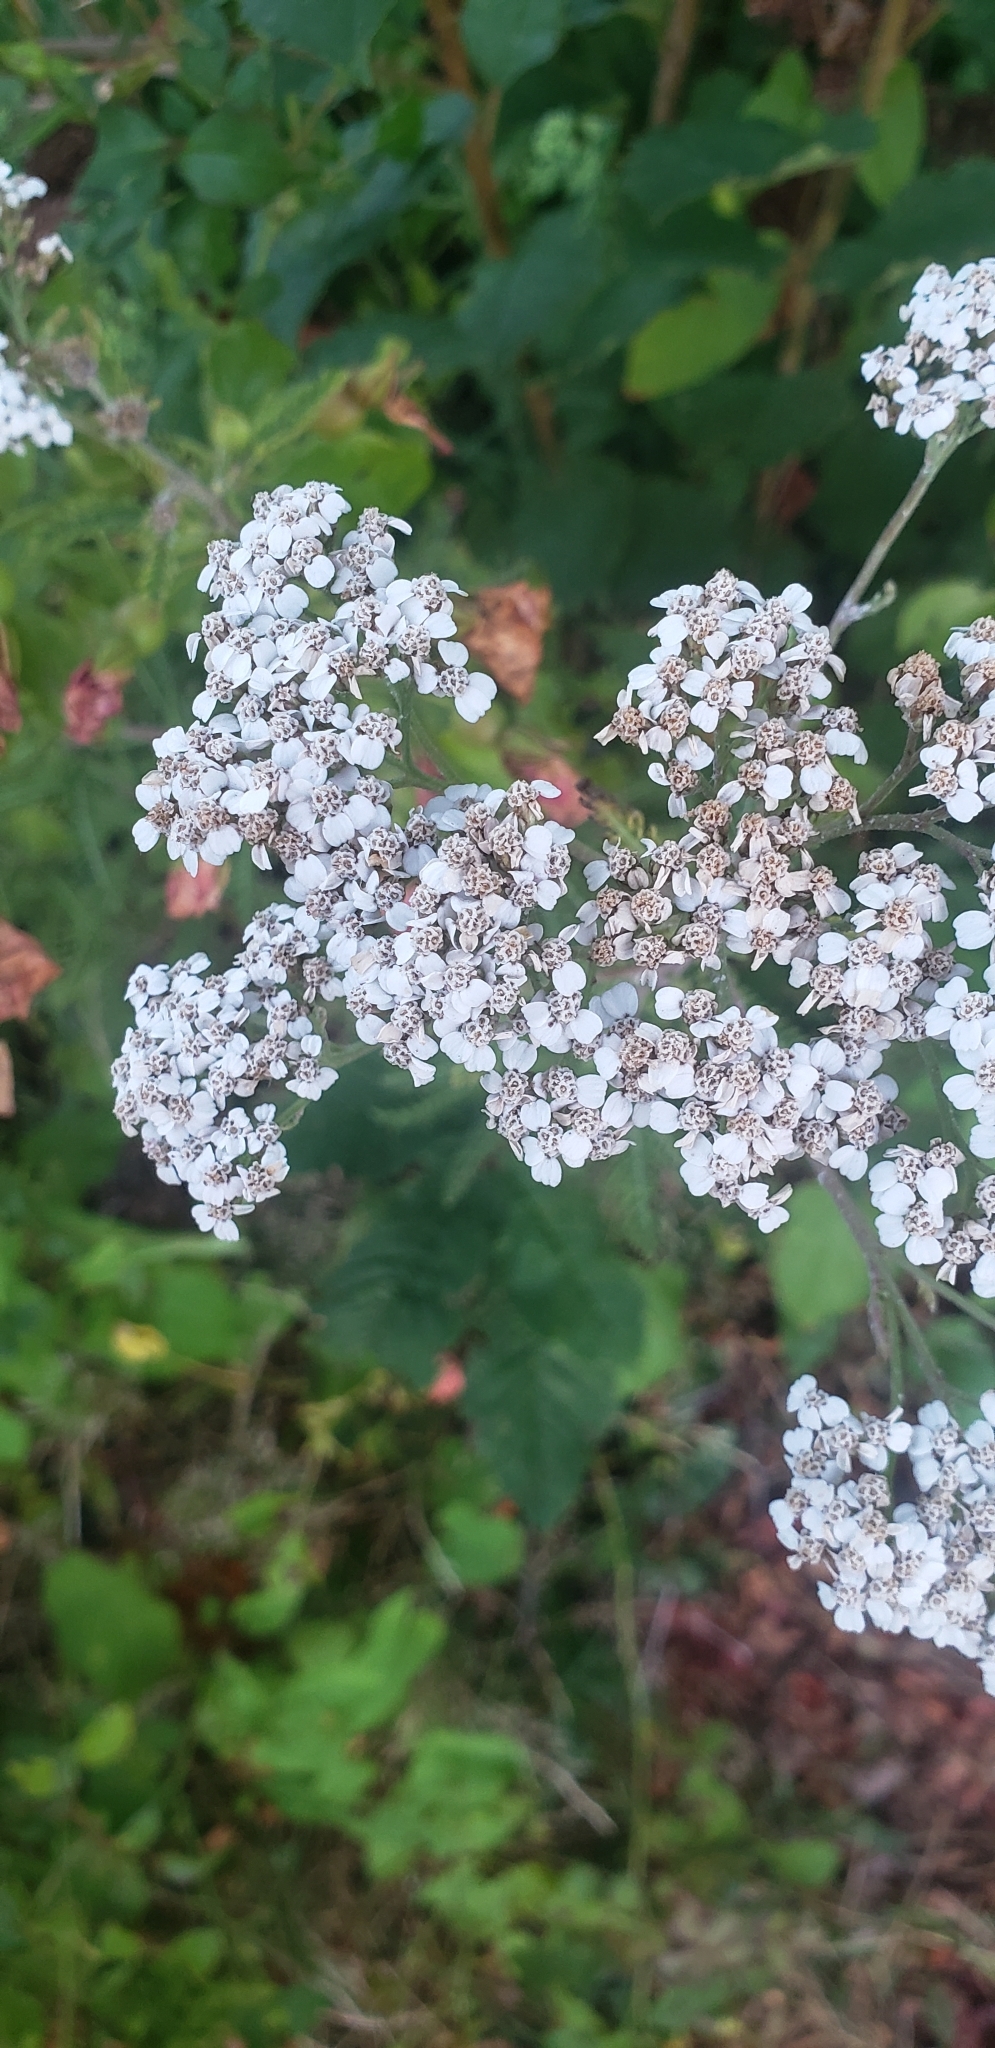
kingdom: Plantae
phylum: Tracheophyta
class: Magnoliopsida
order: Asterales
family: Asteraceae
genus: Achillea
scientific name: Achillea millefolium
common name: Yarrow
